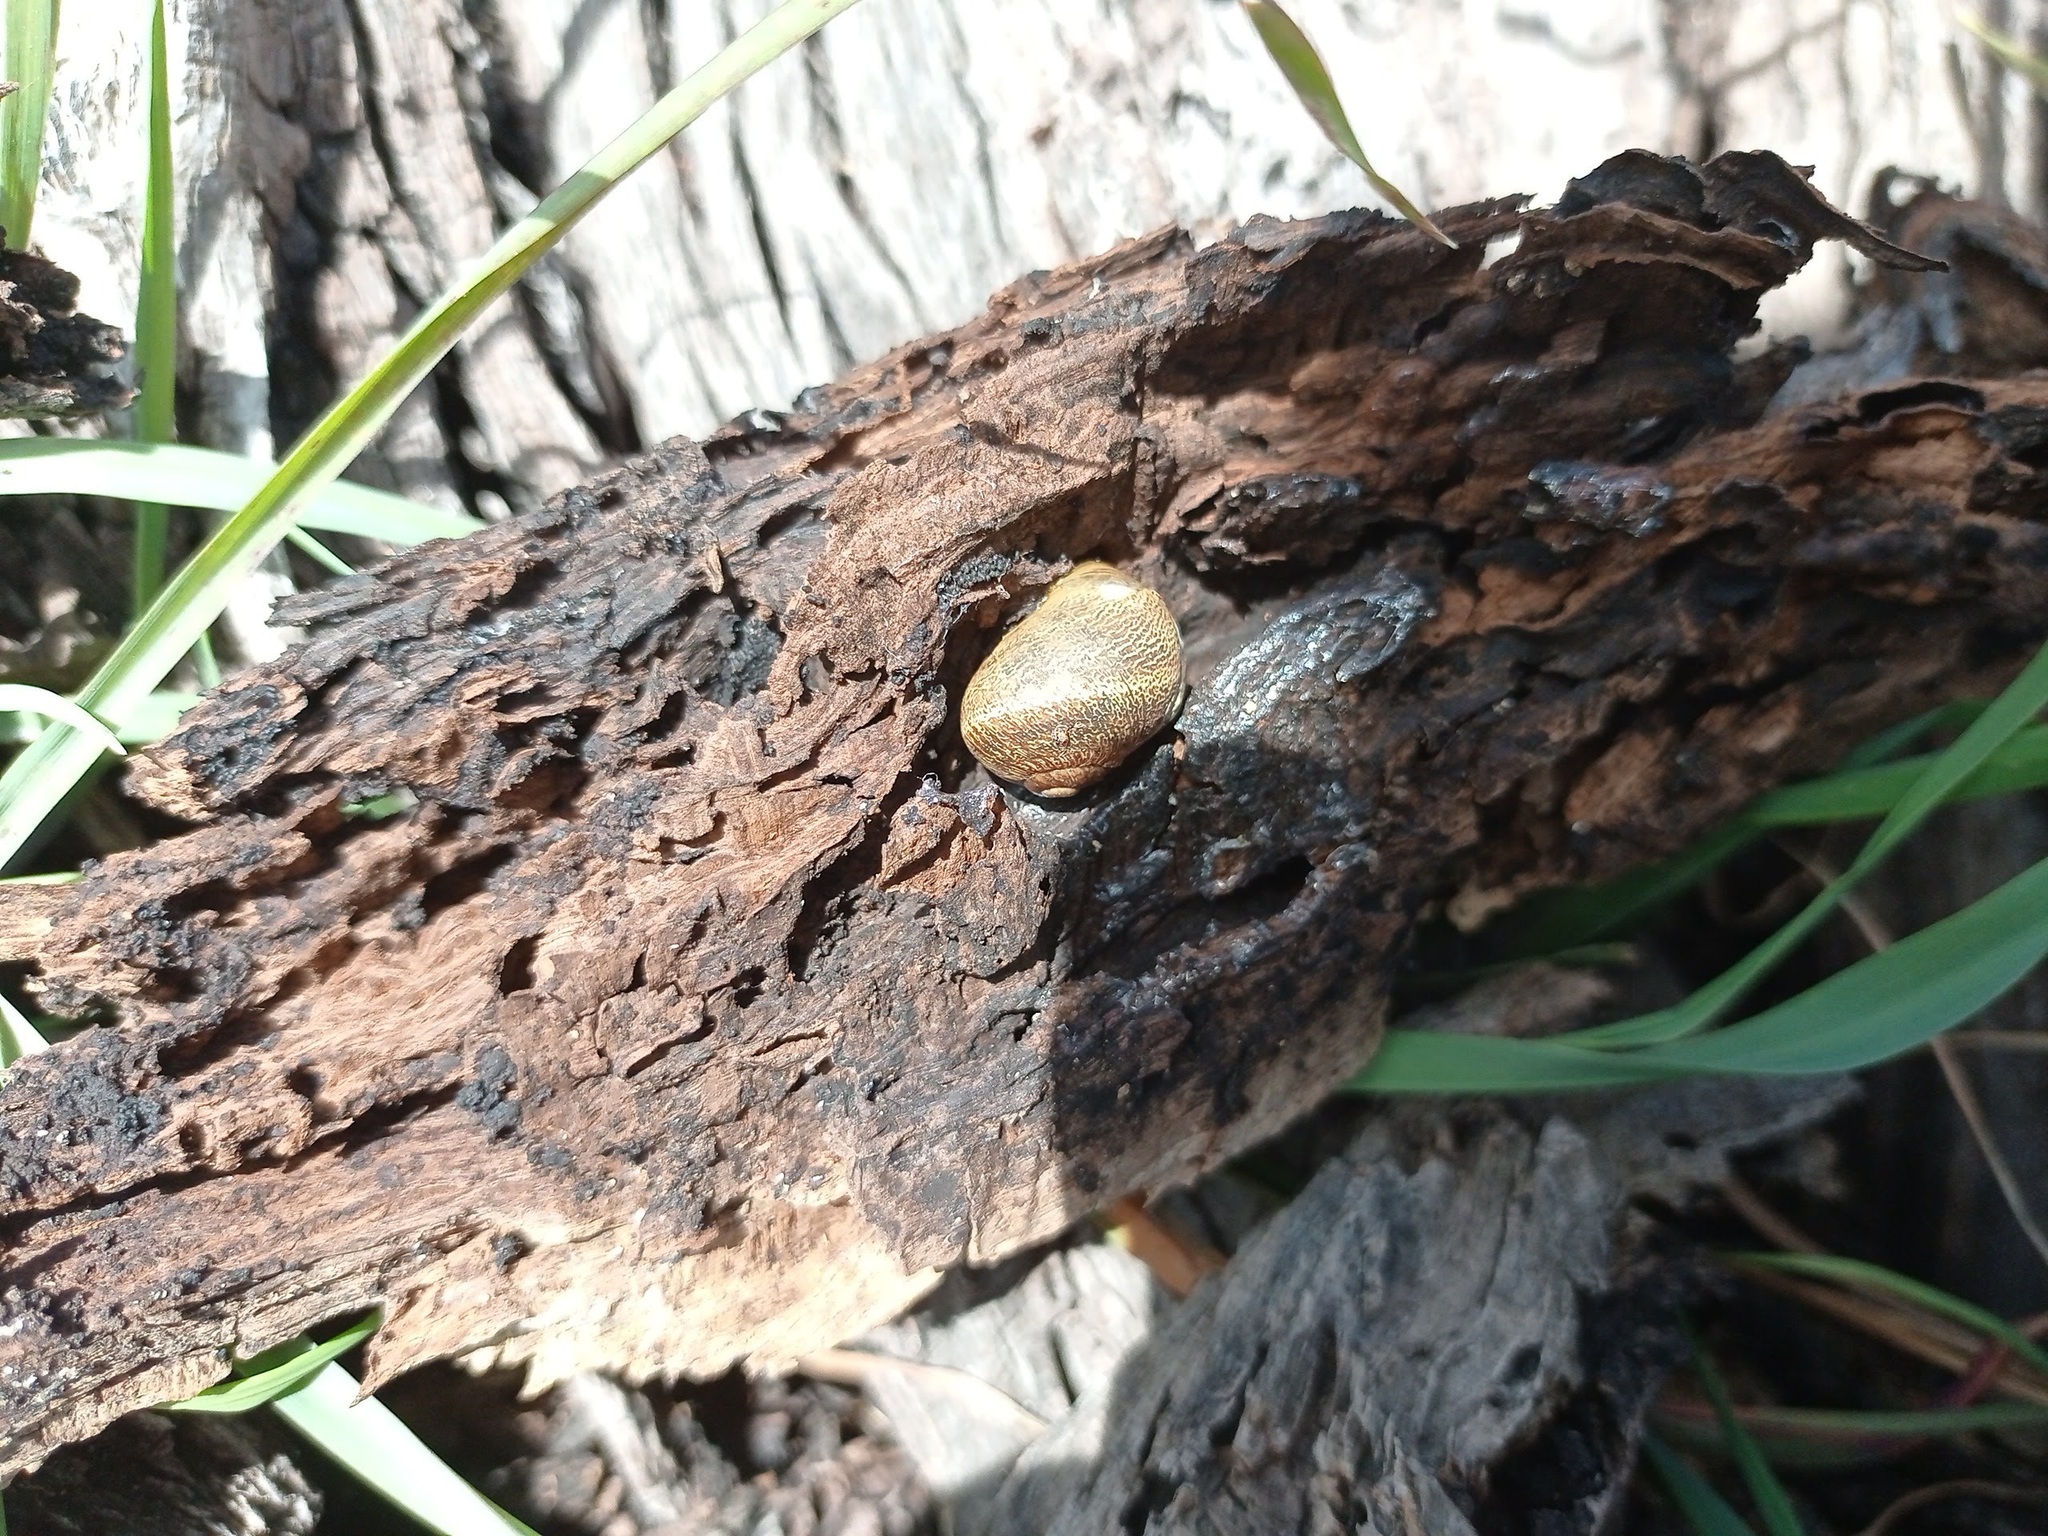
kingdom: Animalia
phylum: Mollusca
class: Gastropoda
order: Stylommatophora
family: Helicidae
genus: Cornu
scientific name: Cornu aspersum
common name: Brown garden snail
